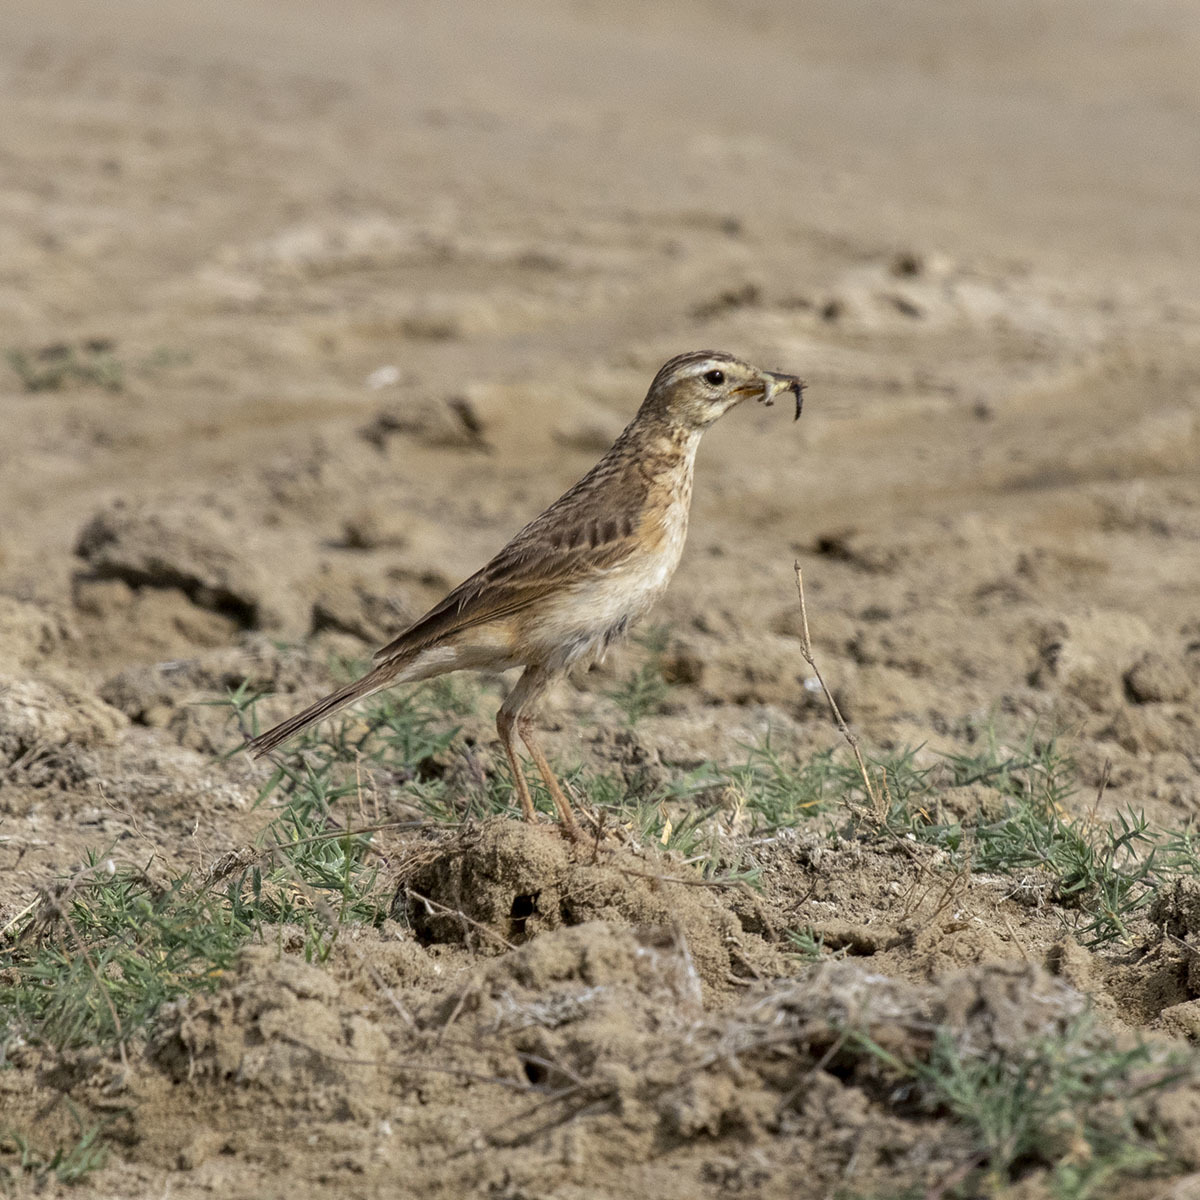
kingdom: Animalia
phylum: Chordata
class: Aves
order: Passeriformes
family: Motacillidae
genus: Anthus
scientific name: Anthus rufulus
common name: Paddyfield pipit
